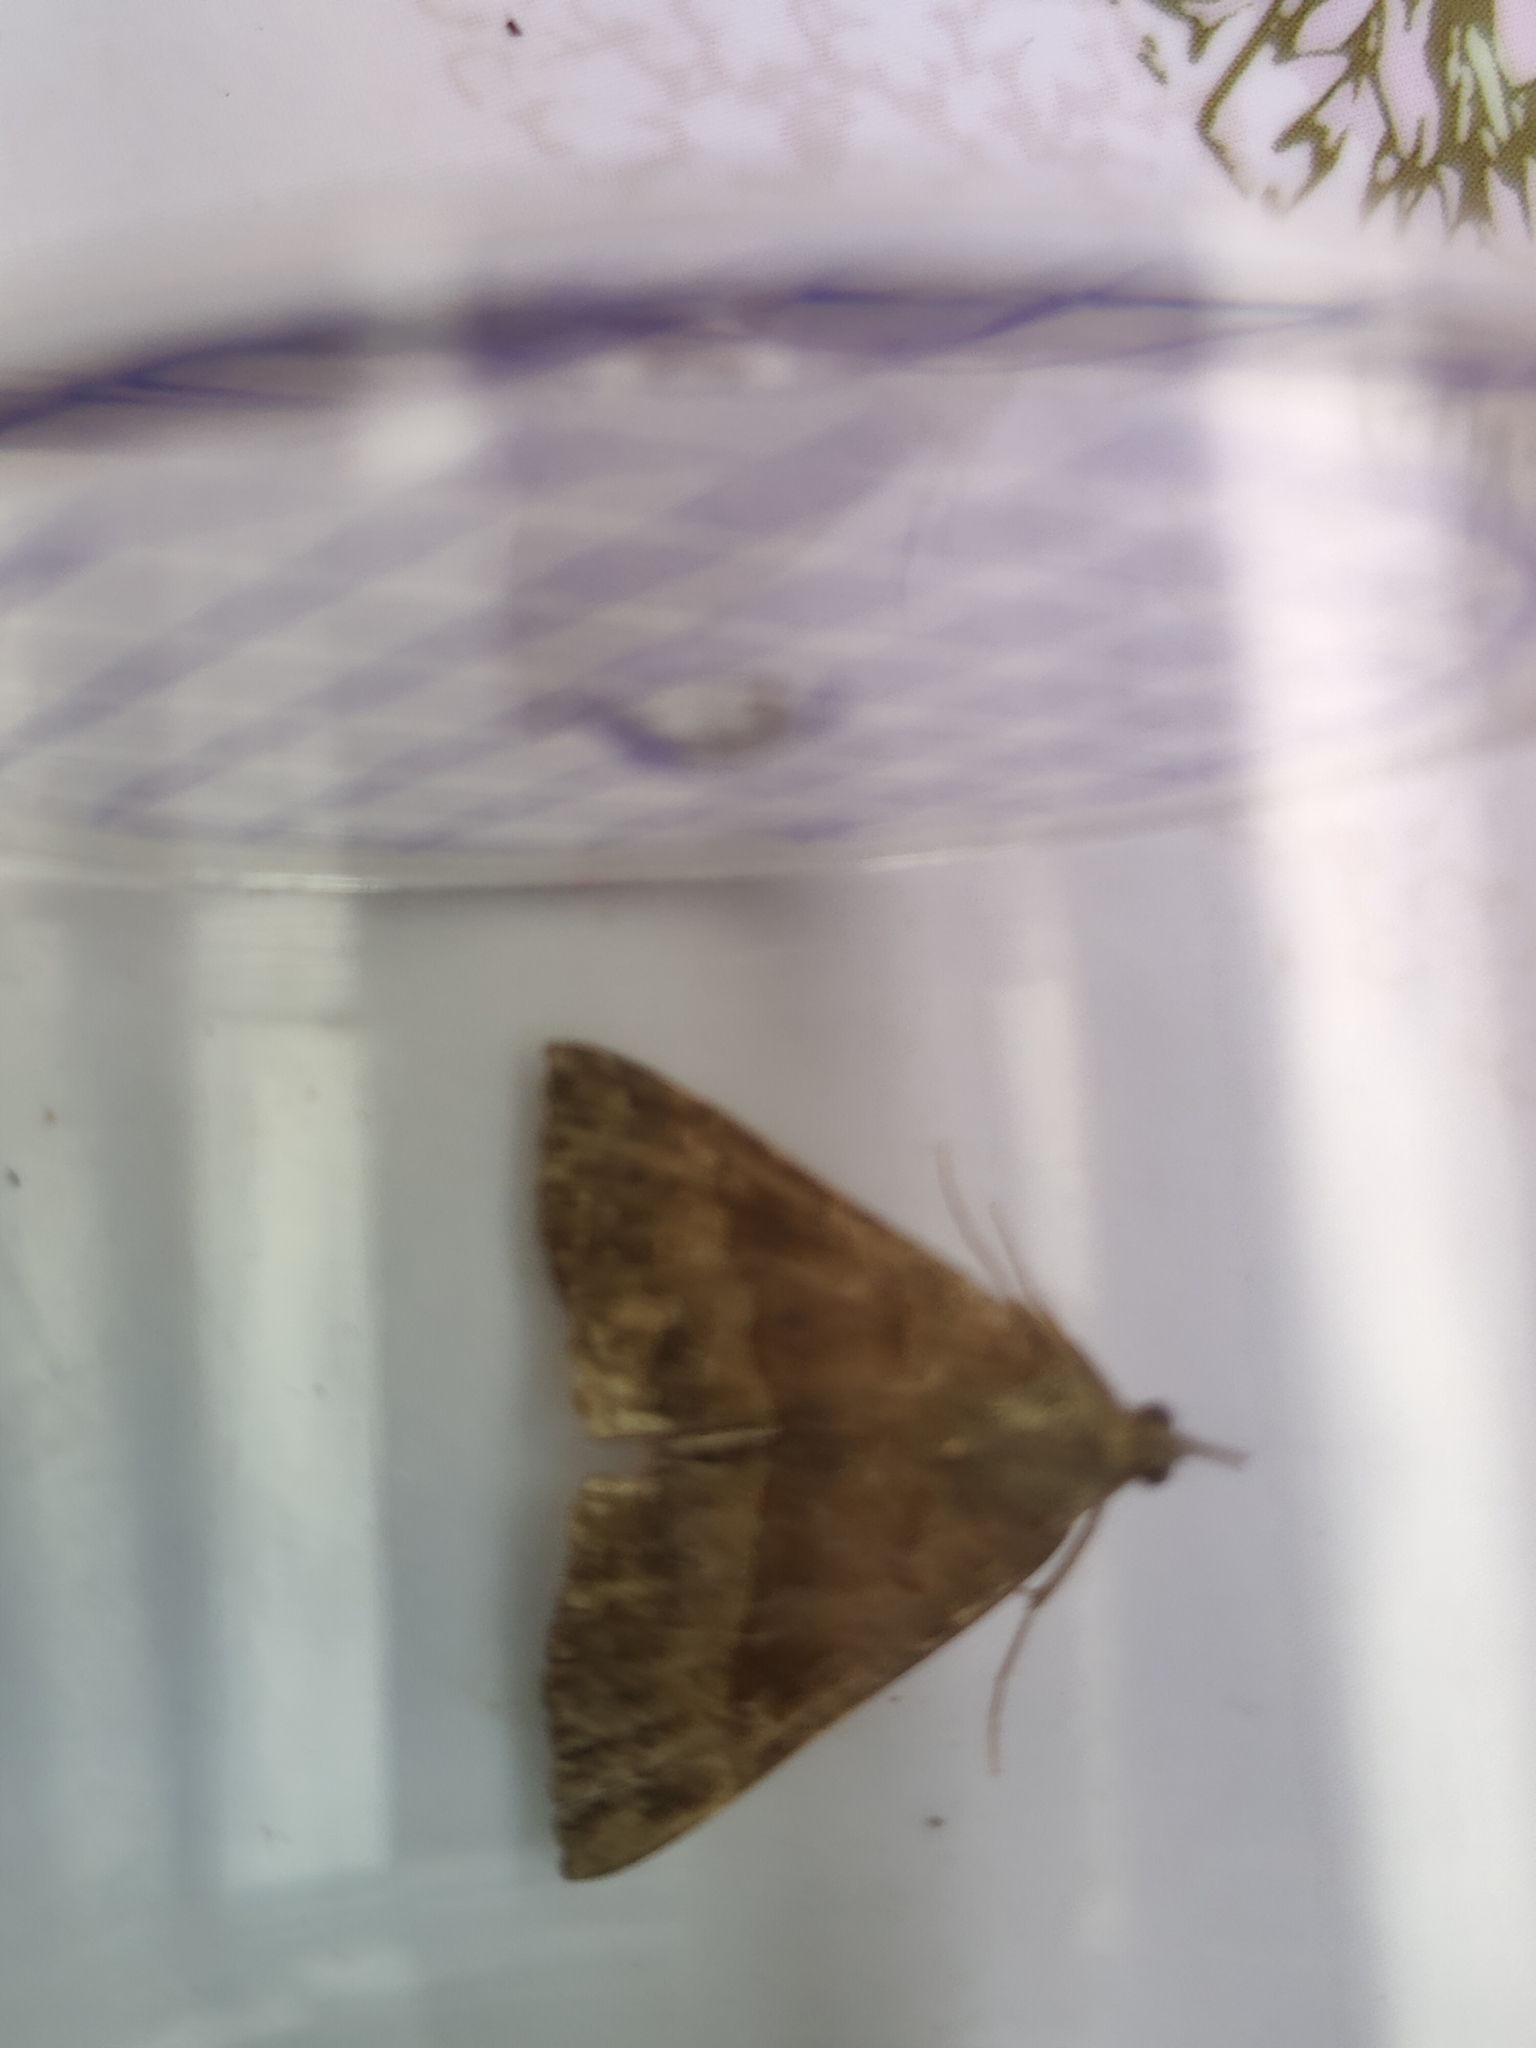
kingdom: Animalia
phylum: Arthropoda
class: Insecta
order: Lepidoptera
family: Erebidae
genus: Hypena
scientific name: Hypena proboscidalis
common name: Snout
